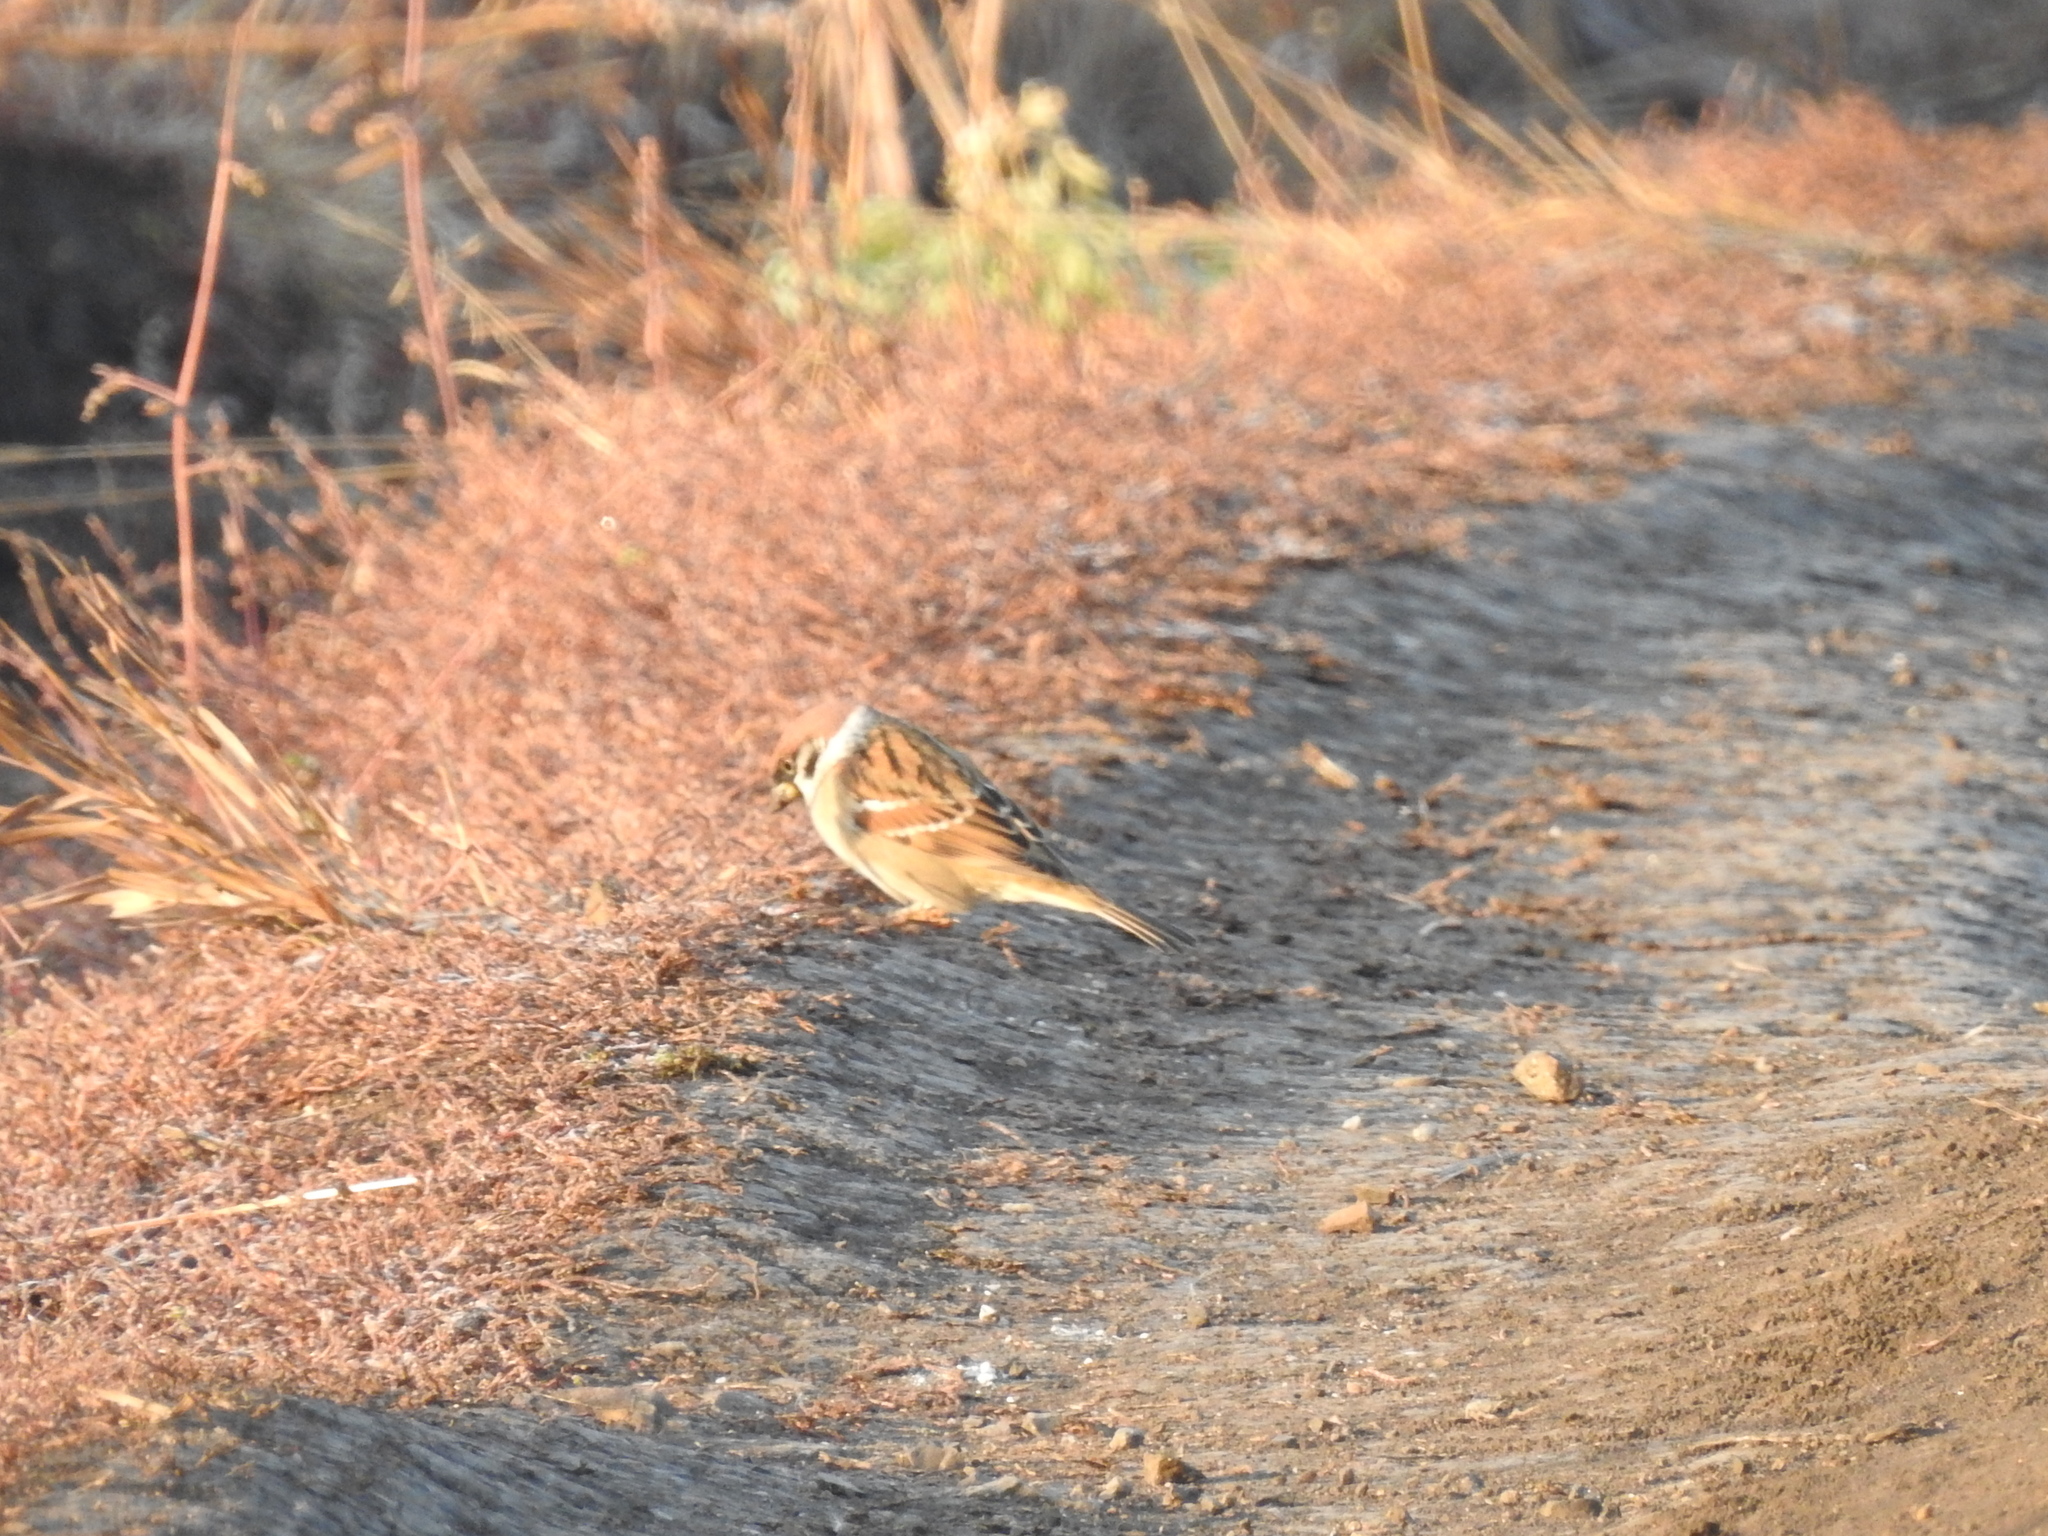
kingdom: Animalia
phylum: Chordata
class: Aves
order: Passeriformes
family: Passeridae
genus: Passer
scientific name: Passer montanus
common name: Eurasian tree sparrow
